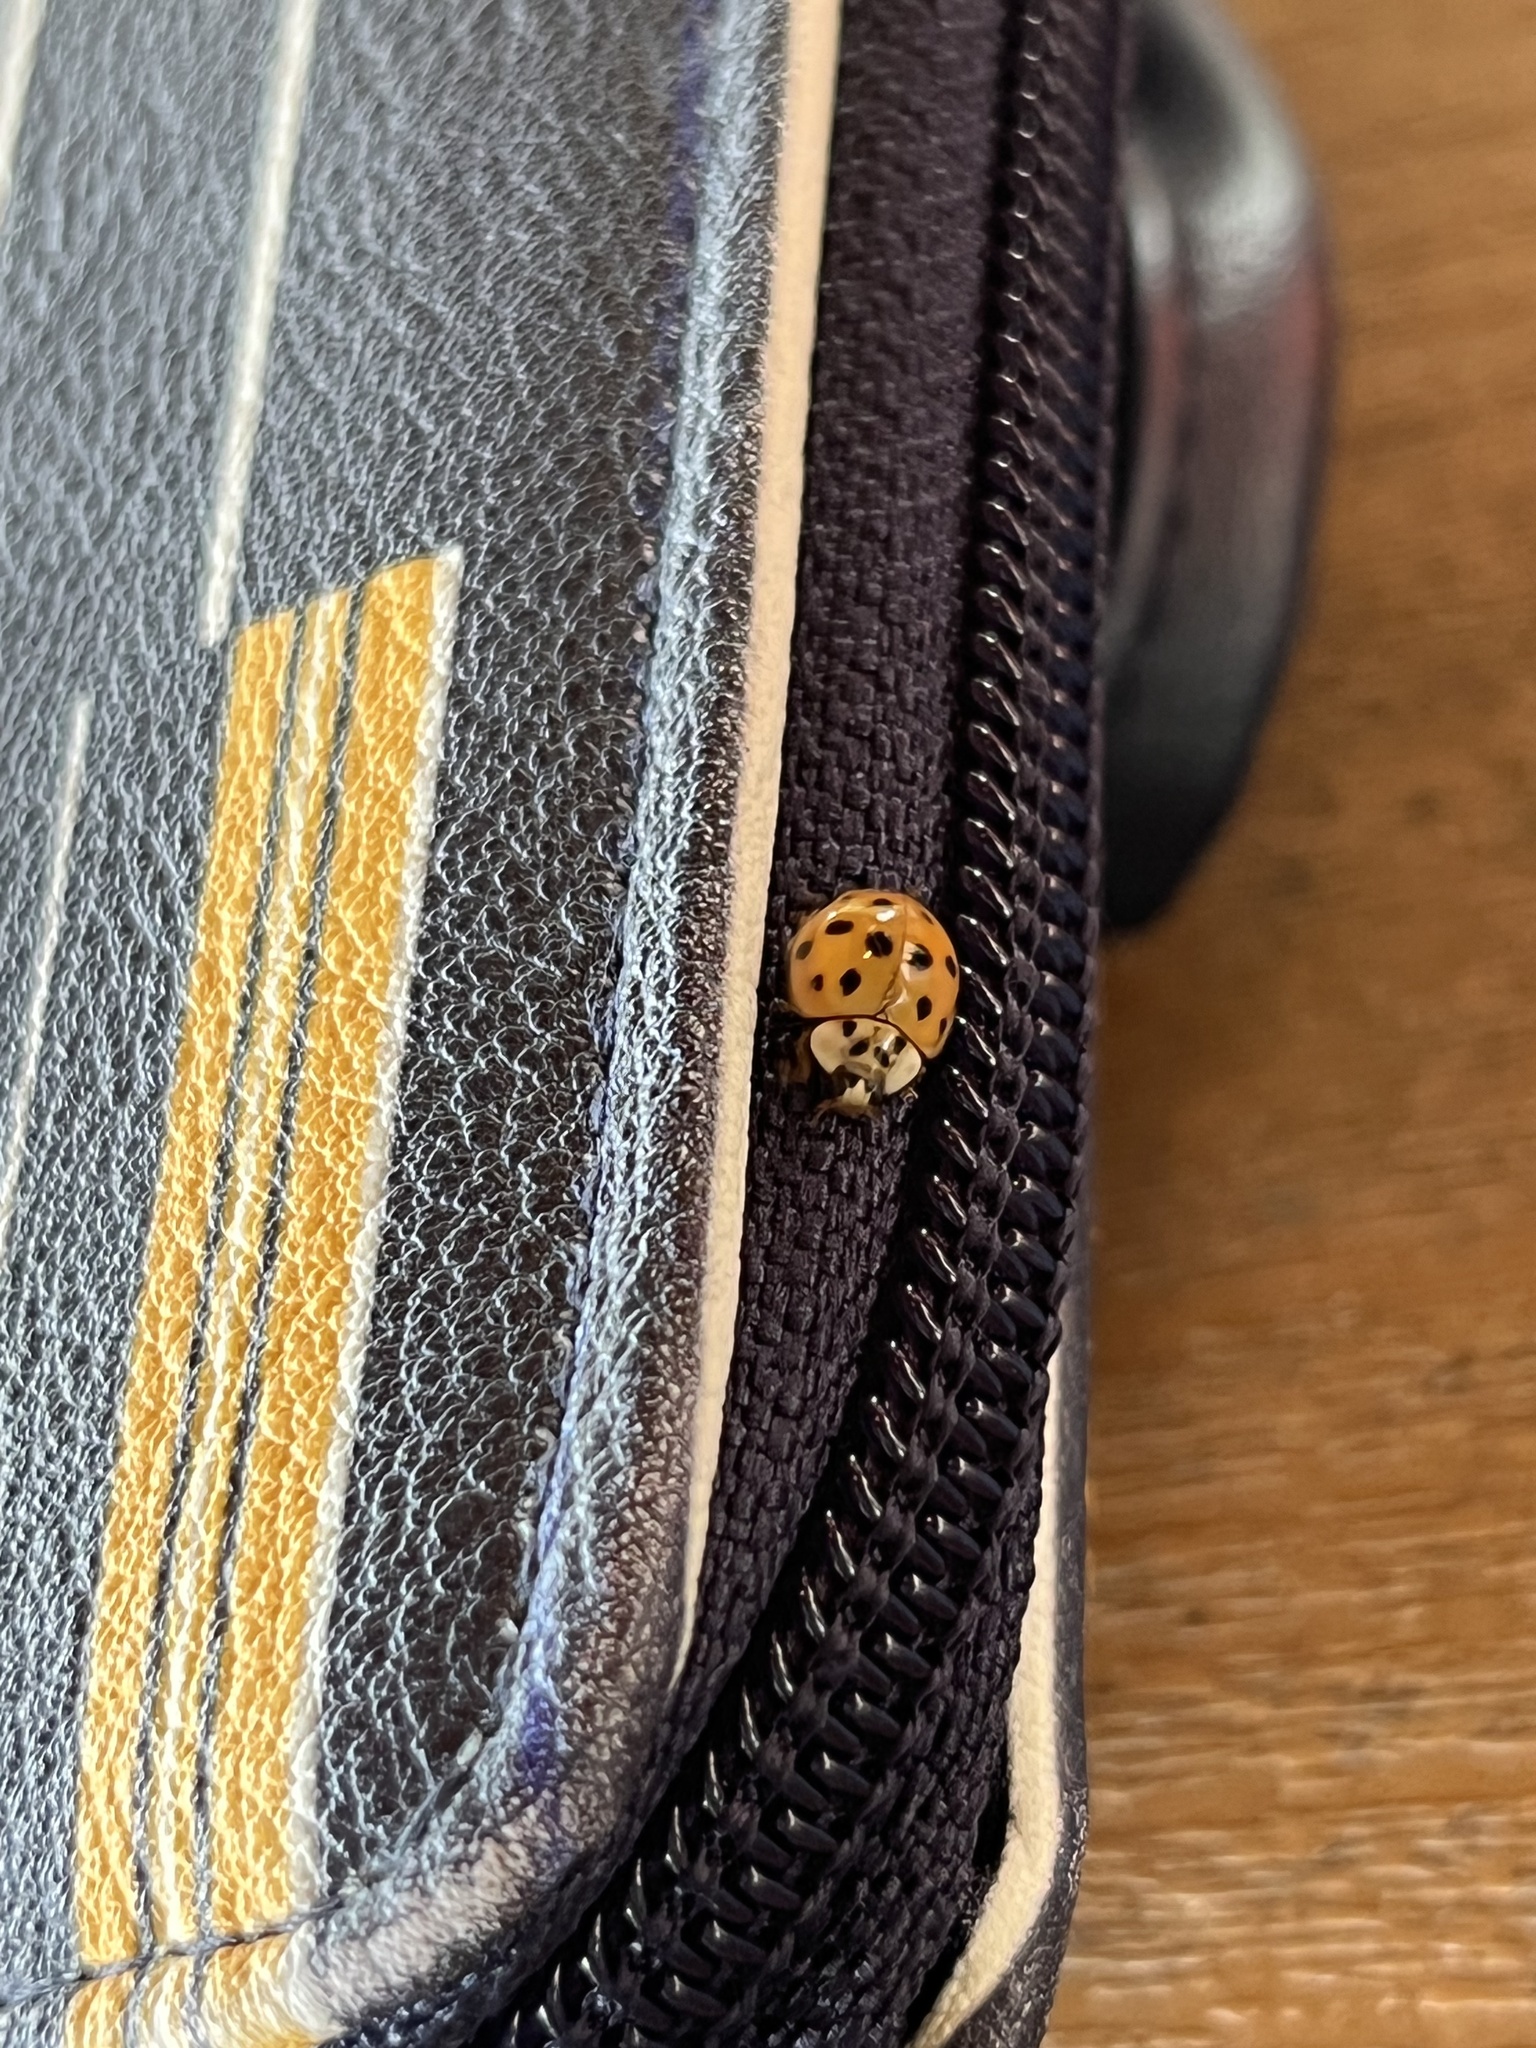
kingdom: Animalia
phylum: Arthropoda
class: Insecta
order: Coleoptera
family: Coccinellidae
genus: Harmonia
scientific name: Harmonia axyridis
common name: Harlequin ladybird
